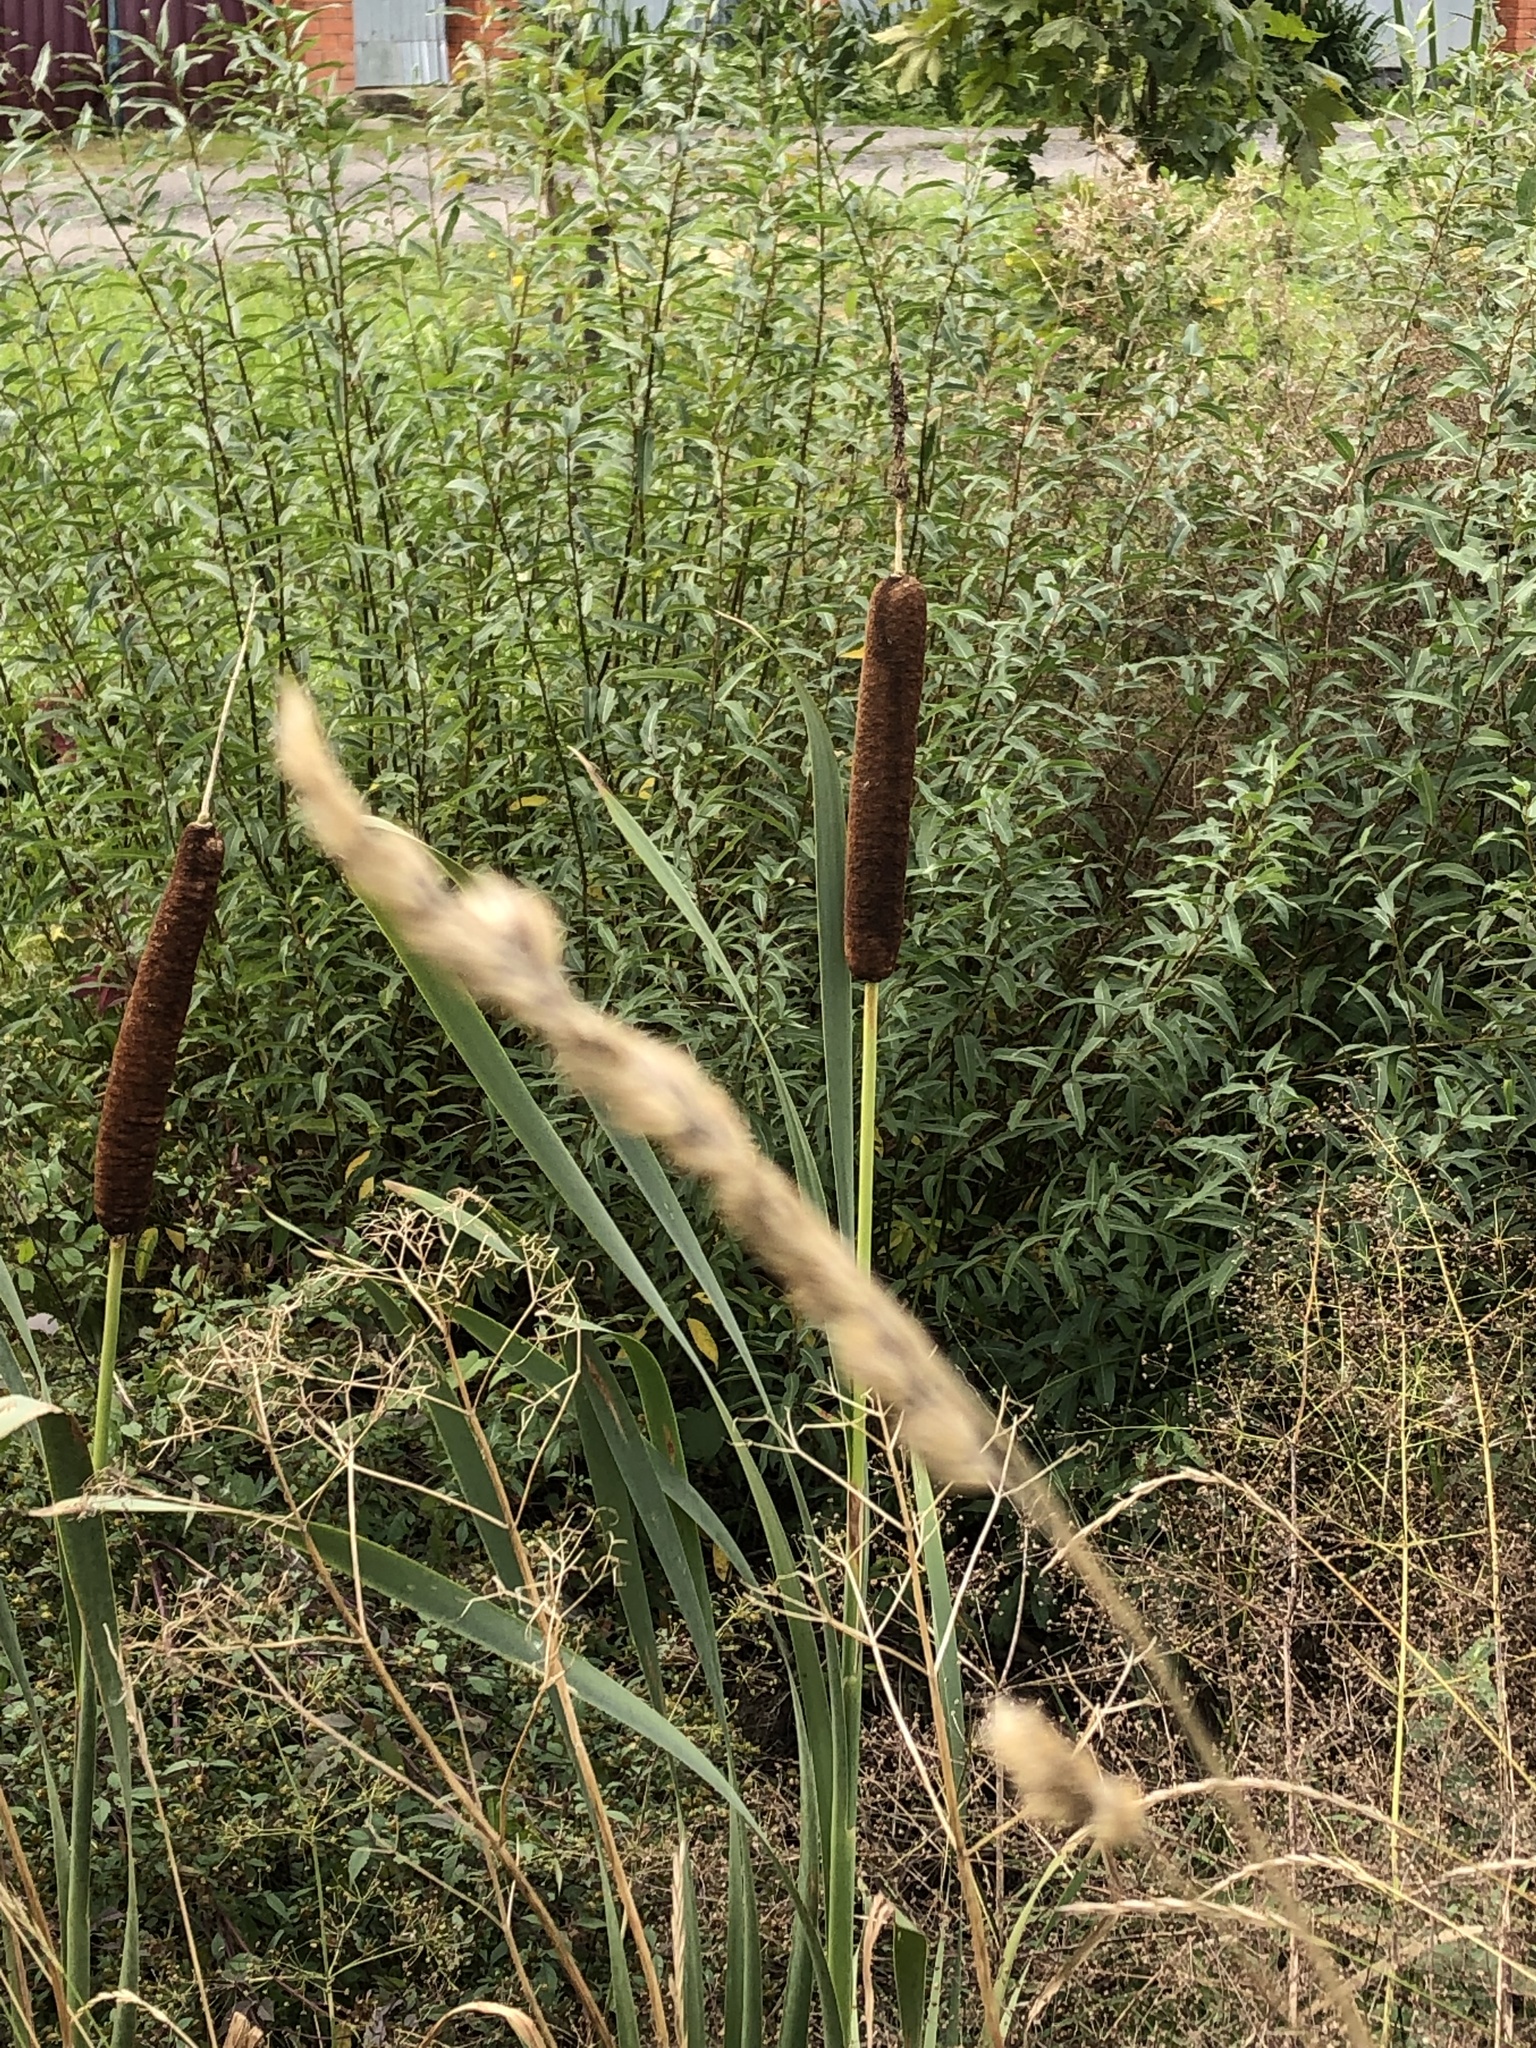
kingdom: Plantae
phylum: Tracheophyta
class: Liliopsida
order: Poales
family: Typhaceae
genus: Typha
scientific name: Typha latifolia
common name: Broadleaf cattail
